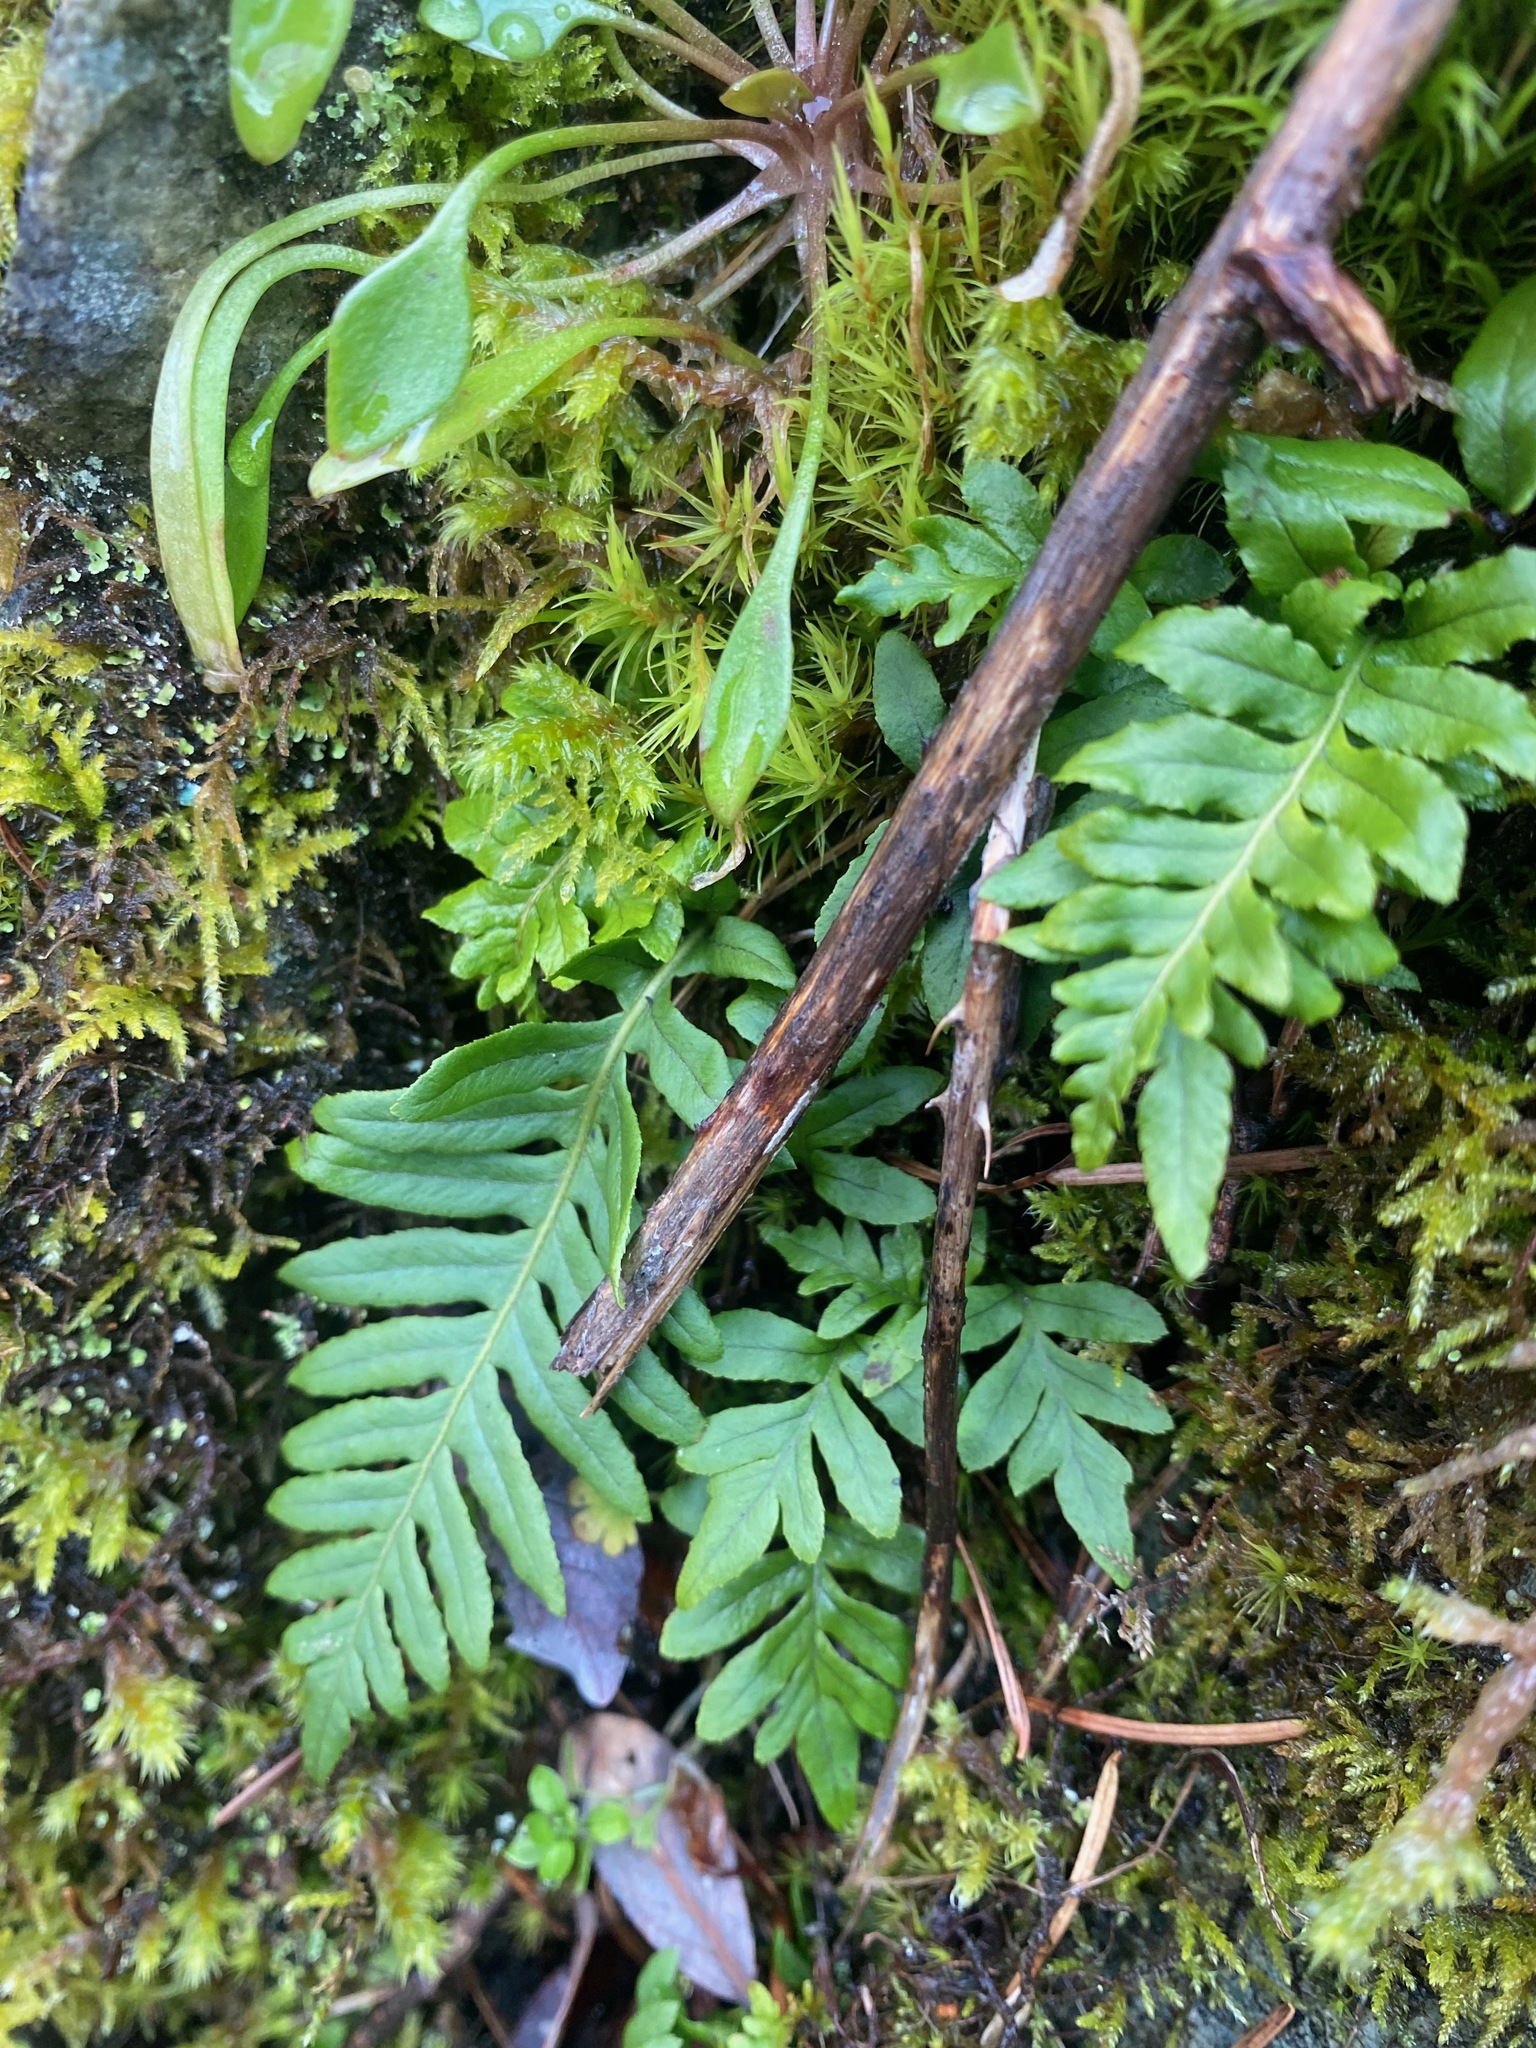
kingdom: Plantae
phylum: Tracheophyta
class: Polypodiopsida
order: Polypodiales
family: Polypodiaceae
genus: Polypodium
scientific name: Polypodium glycyrrhiza
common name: Licorice fern
